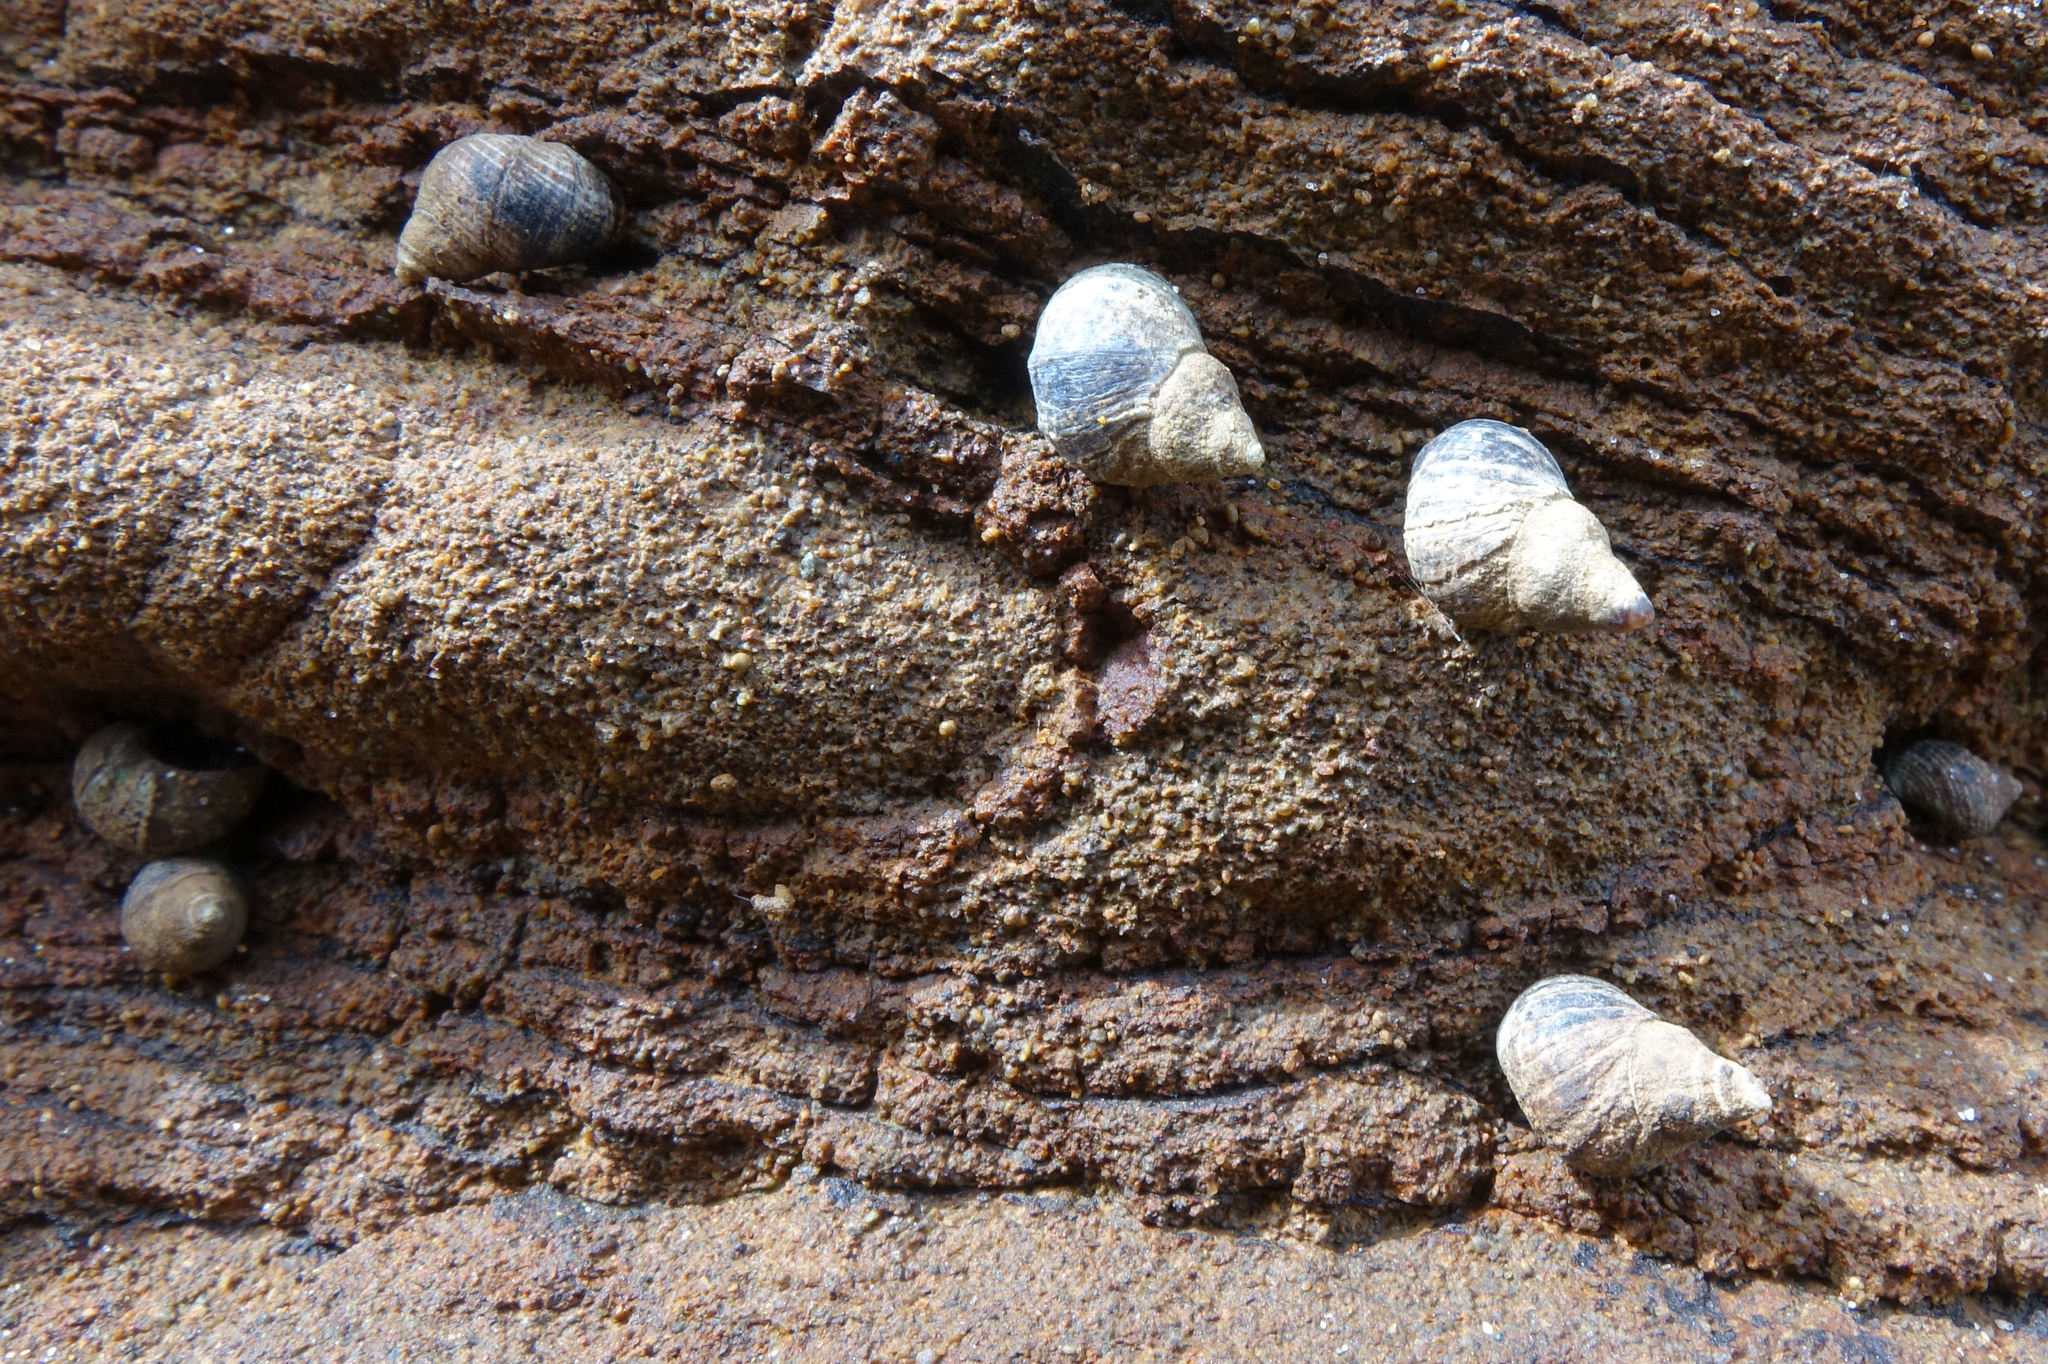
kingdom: Animalia
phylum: Mollusca
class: Gastropoda
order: Littorinimorpha
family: Littorinidae
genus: Austrolittorina
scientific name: Austrolittorina antipodum
